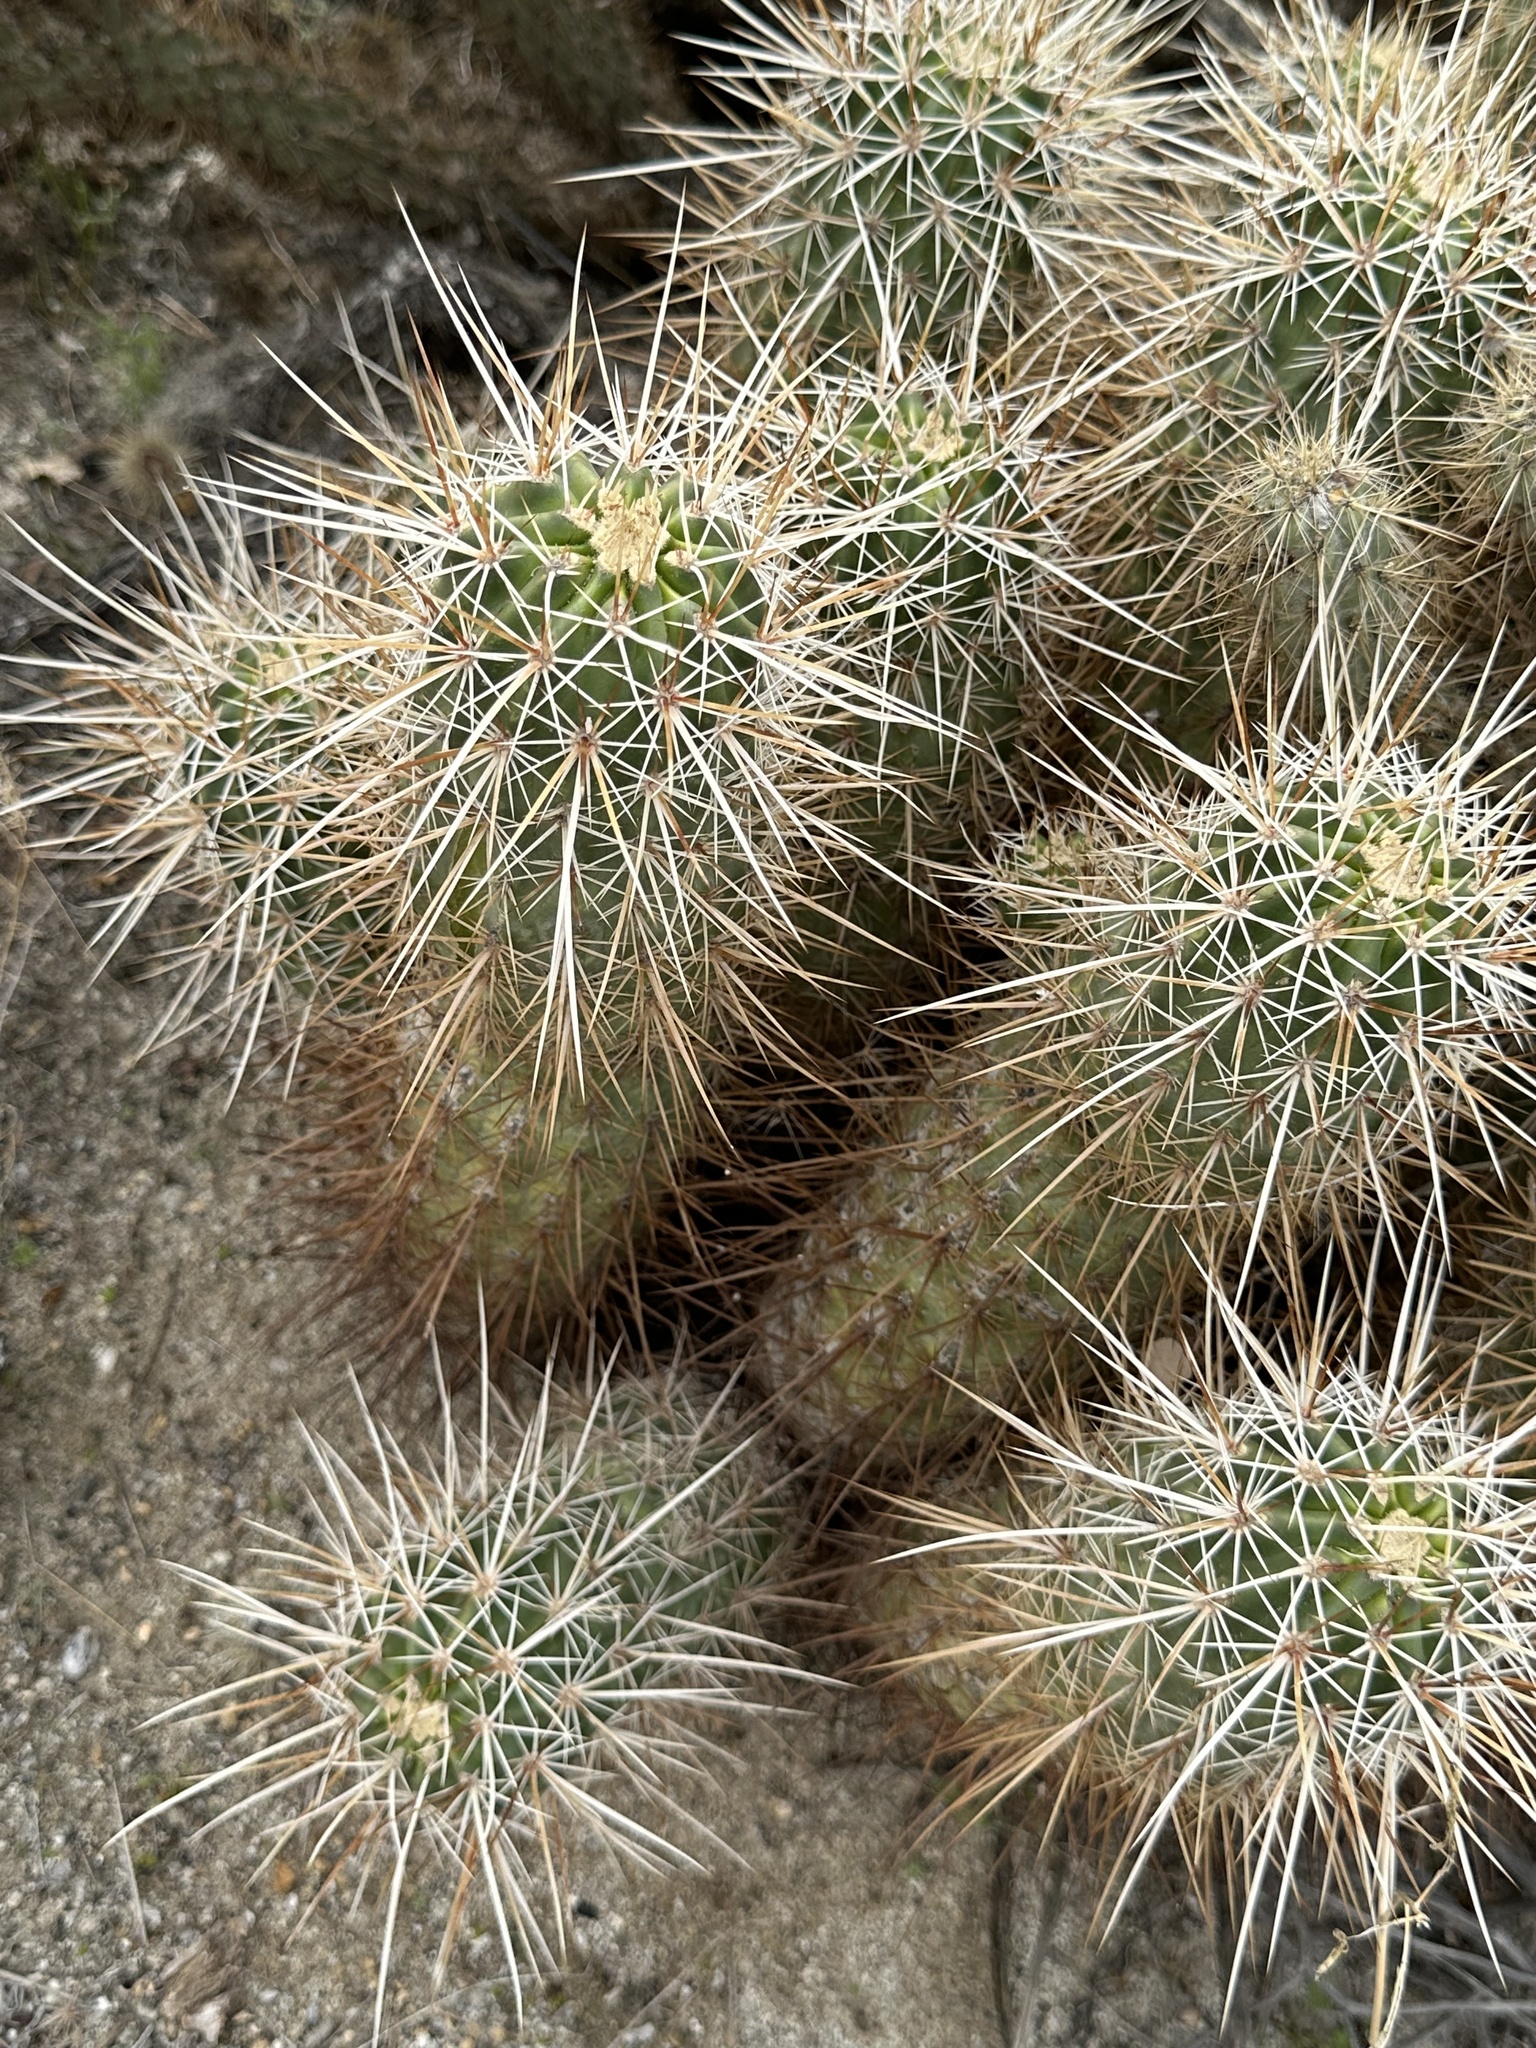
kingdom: Plantae
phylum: Tracheophyta
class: Magnoliopsida
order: Caryophyllales
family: Cactaceae
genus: Echinocereus
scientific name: Echinocereus engelmannii
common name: Engelmann's hedgehog cactus
